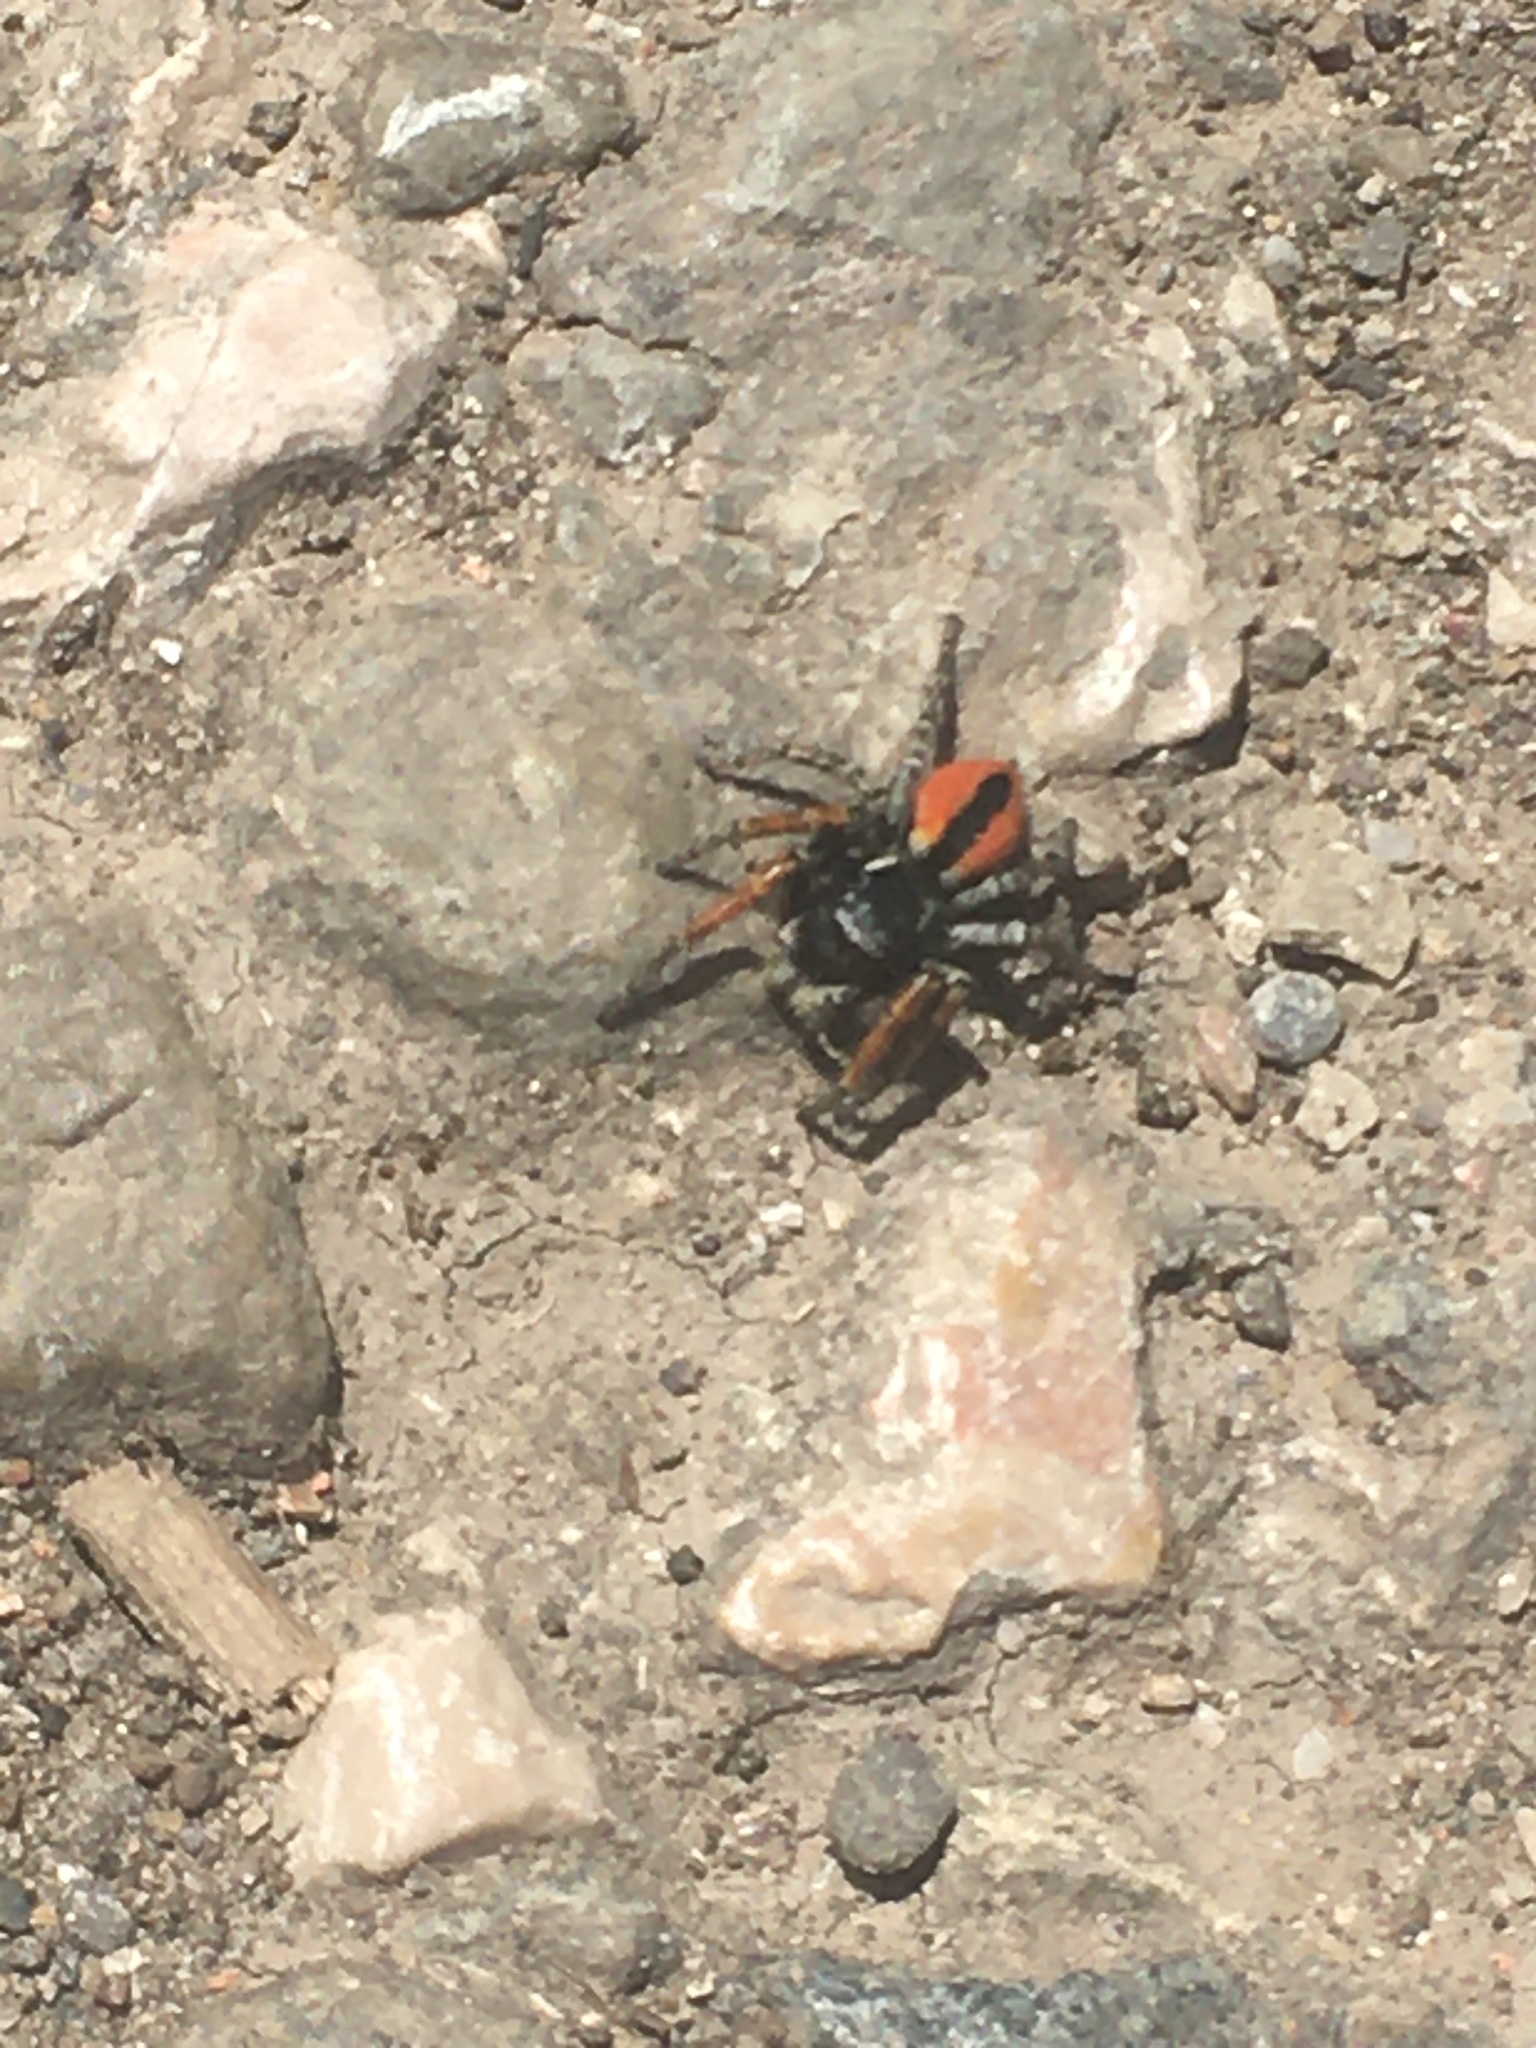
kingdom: Animalia
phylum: Arthropoda
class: Arachnida
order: Araneae
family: Salticidae
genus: Philaeus
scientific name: Philaeus chrysops
